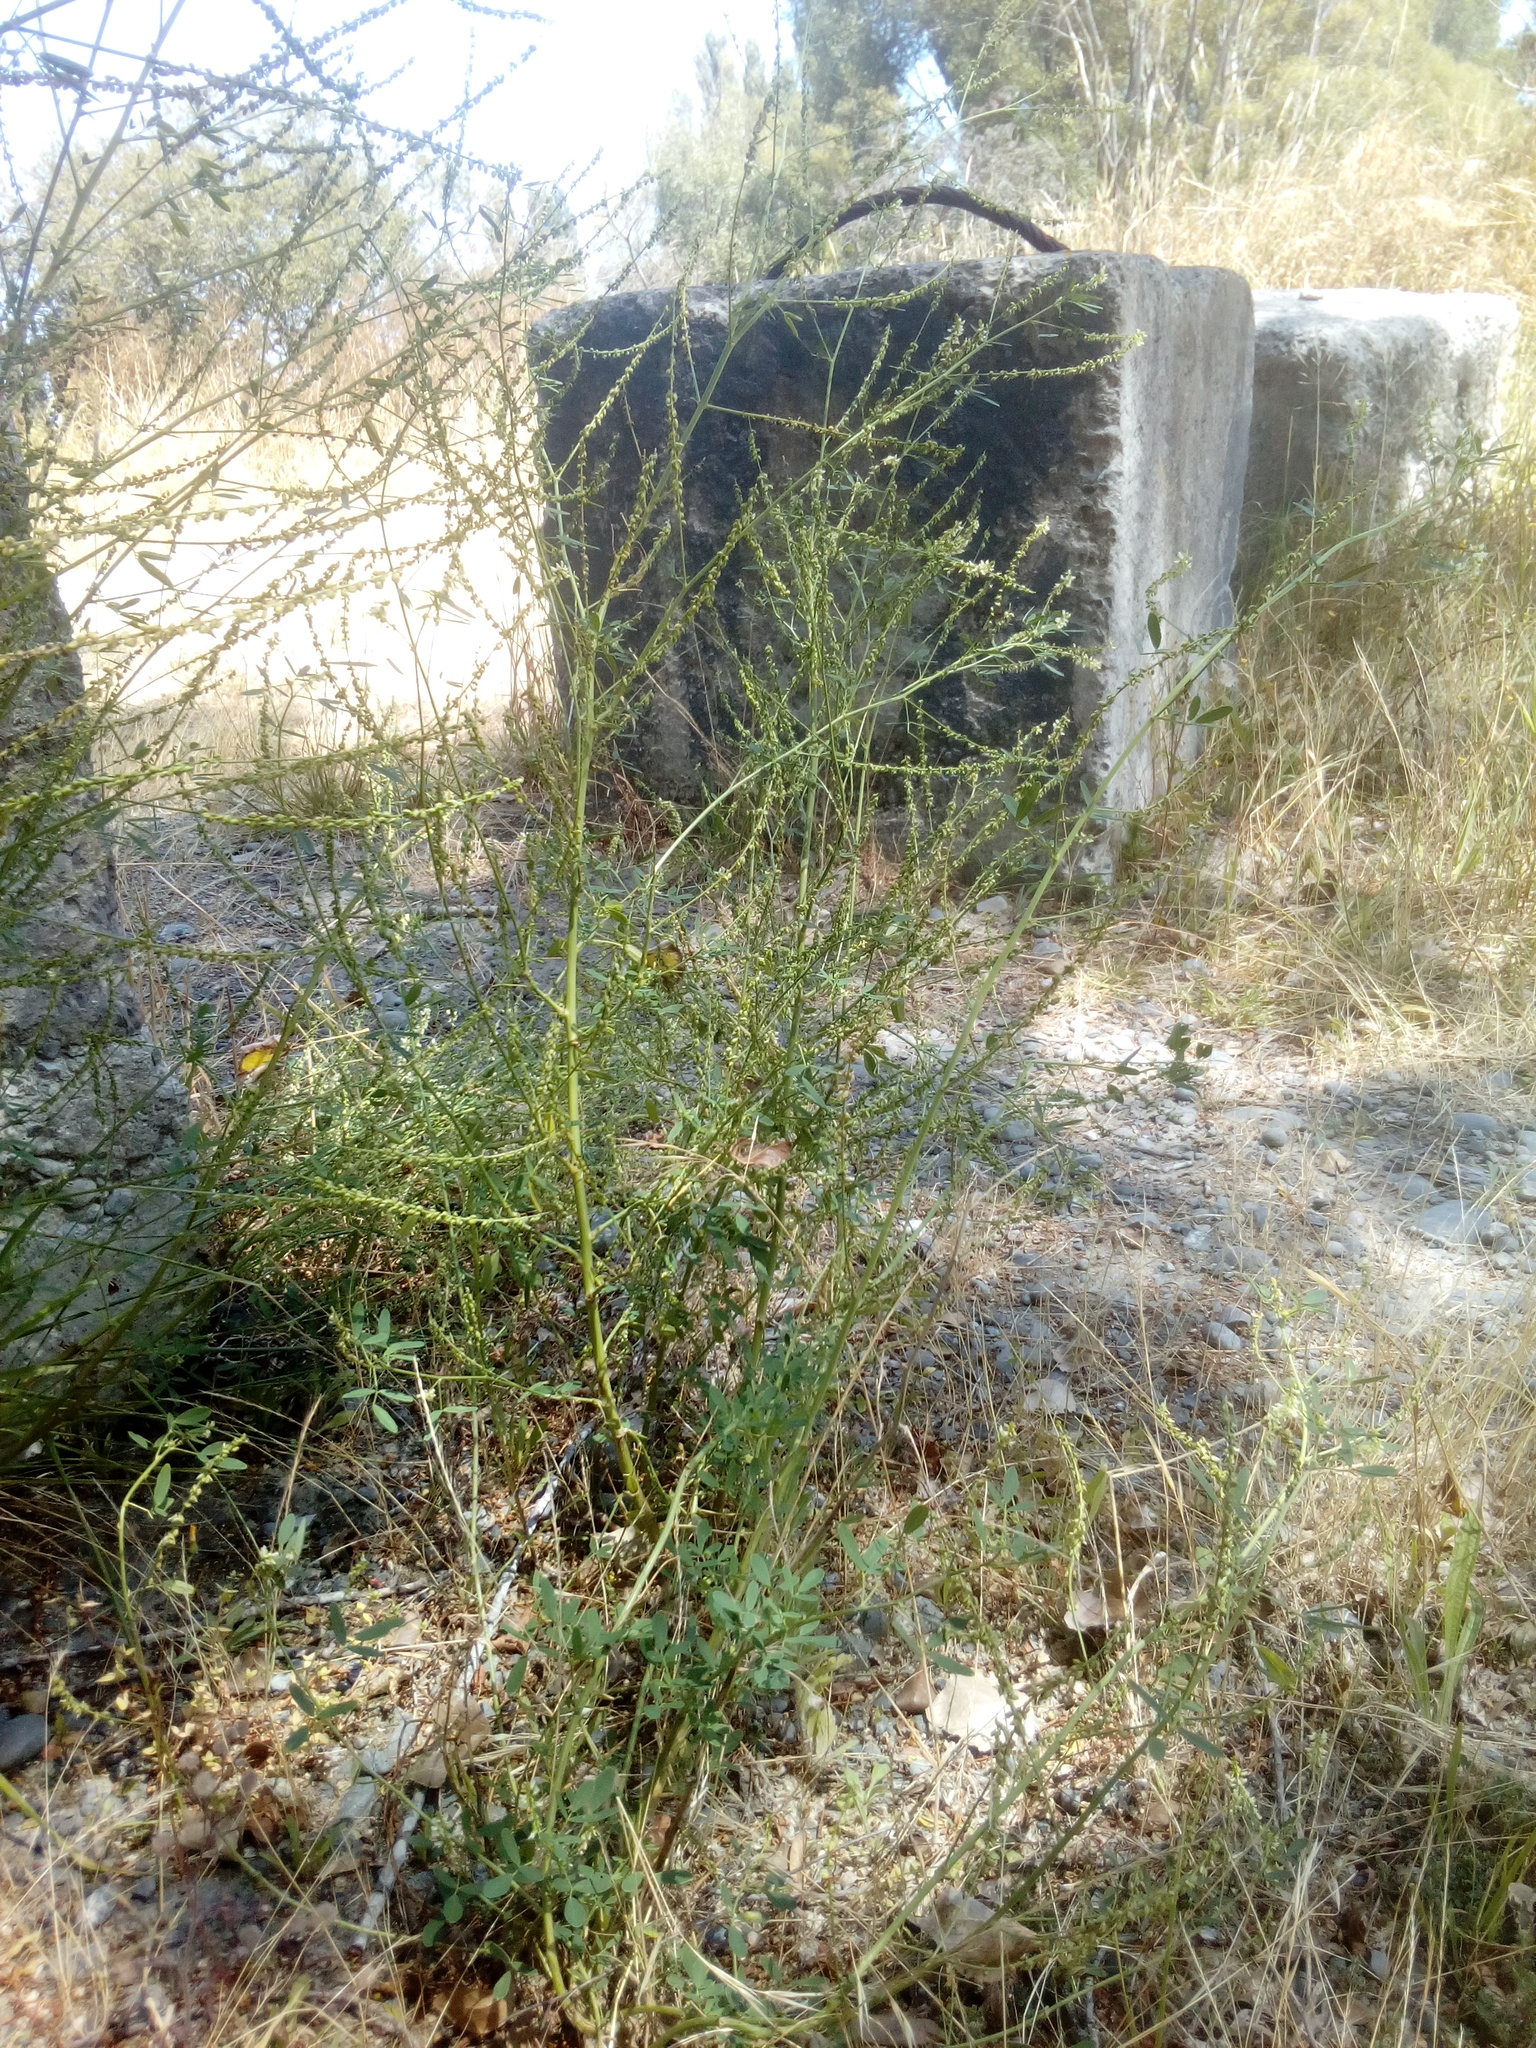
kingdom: Plantae
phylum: Tracheophyta
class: Magnoliopsida
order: Fabales
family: Fabaceae
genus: Melilotus
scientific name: Melilotus albus
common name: White melilot
